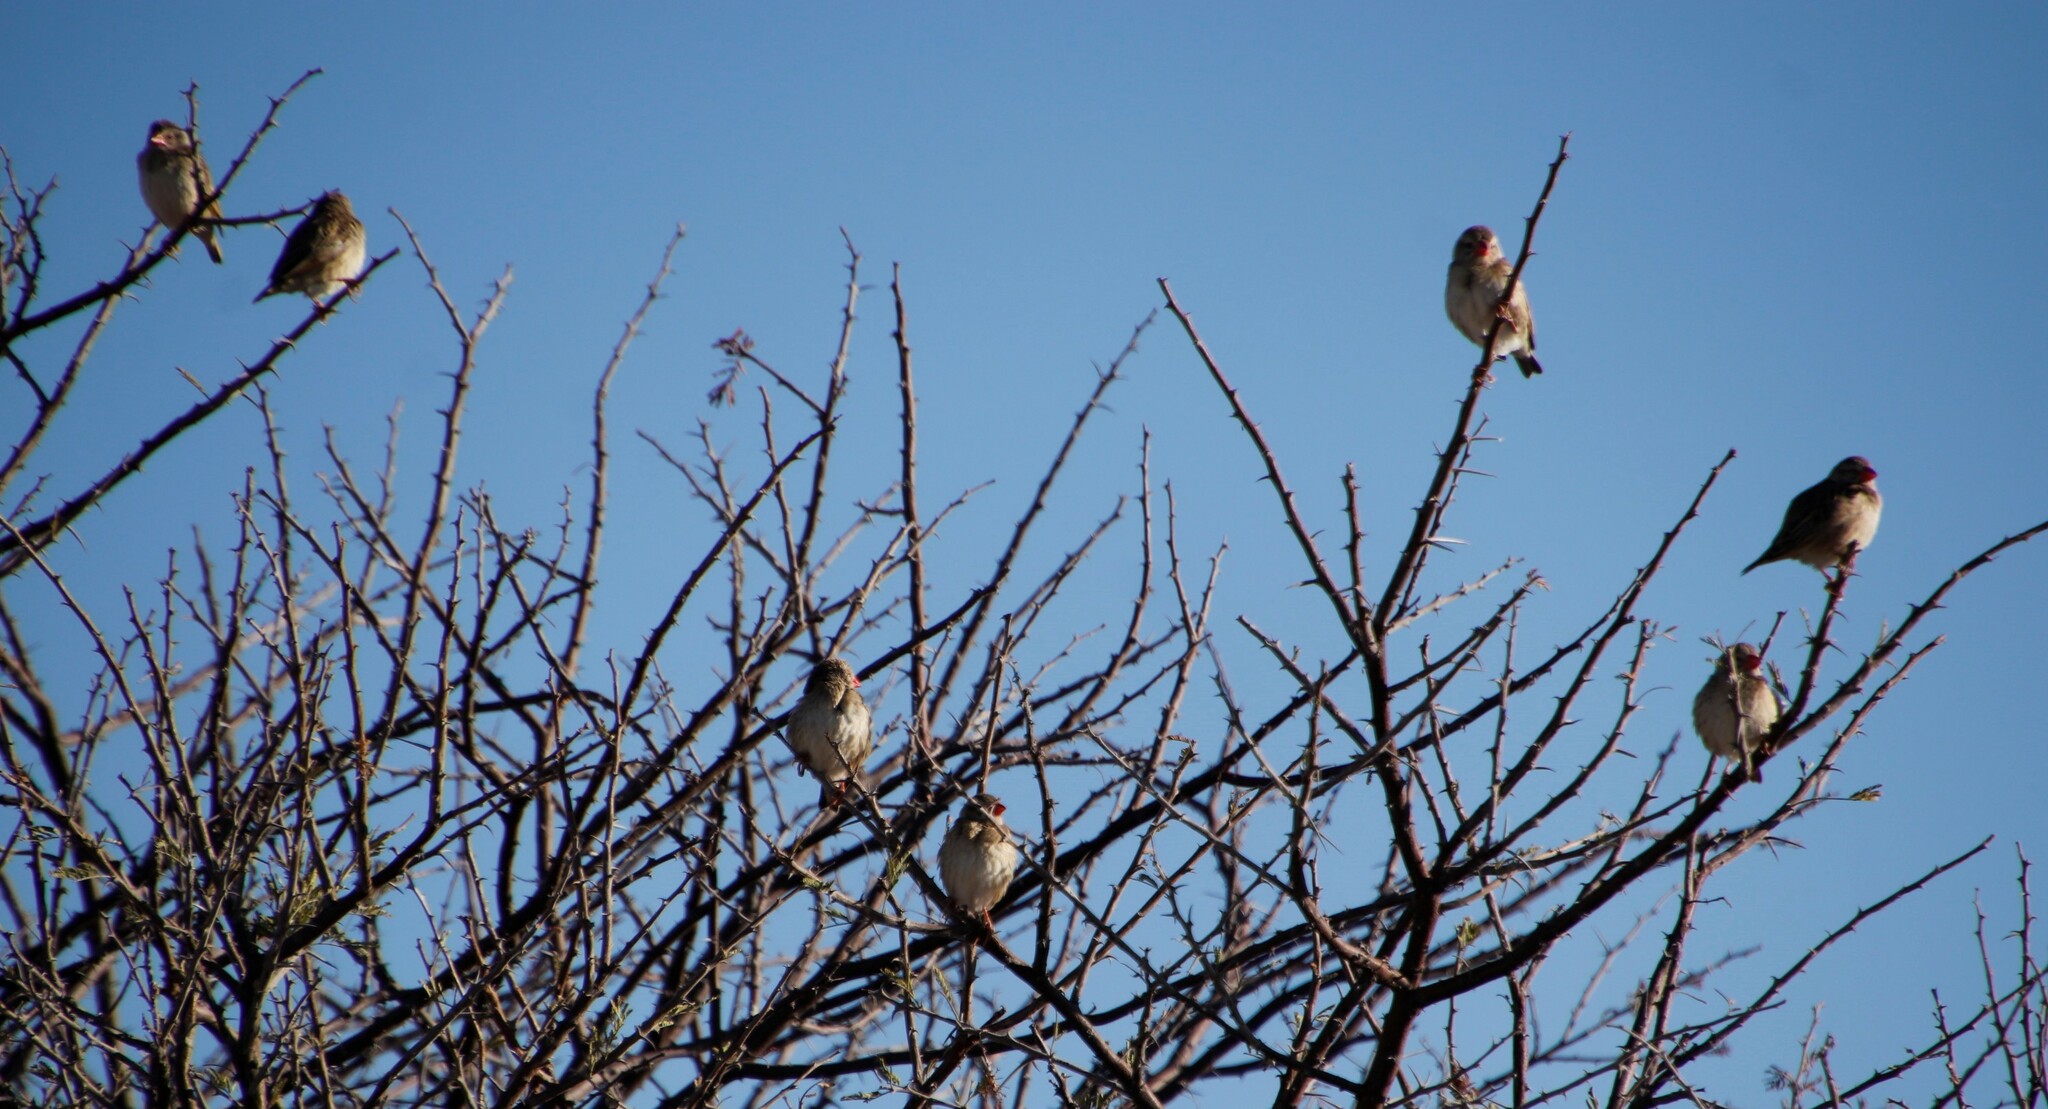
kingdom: Animalia
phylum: Chordata
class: Aves
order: Passeriformes
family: Ploceidae
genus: Quelea
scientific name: Quelea quelea
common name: Red-billed quelea
